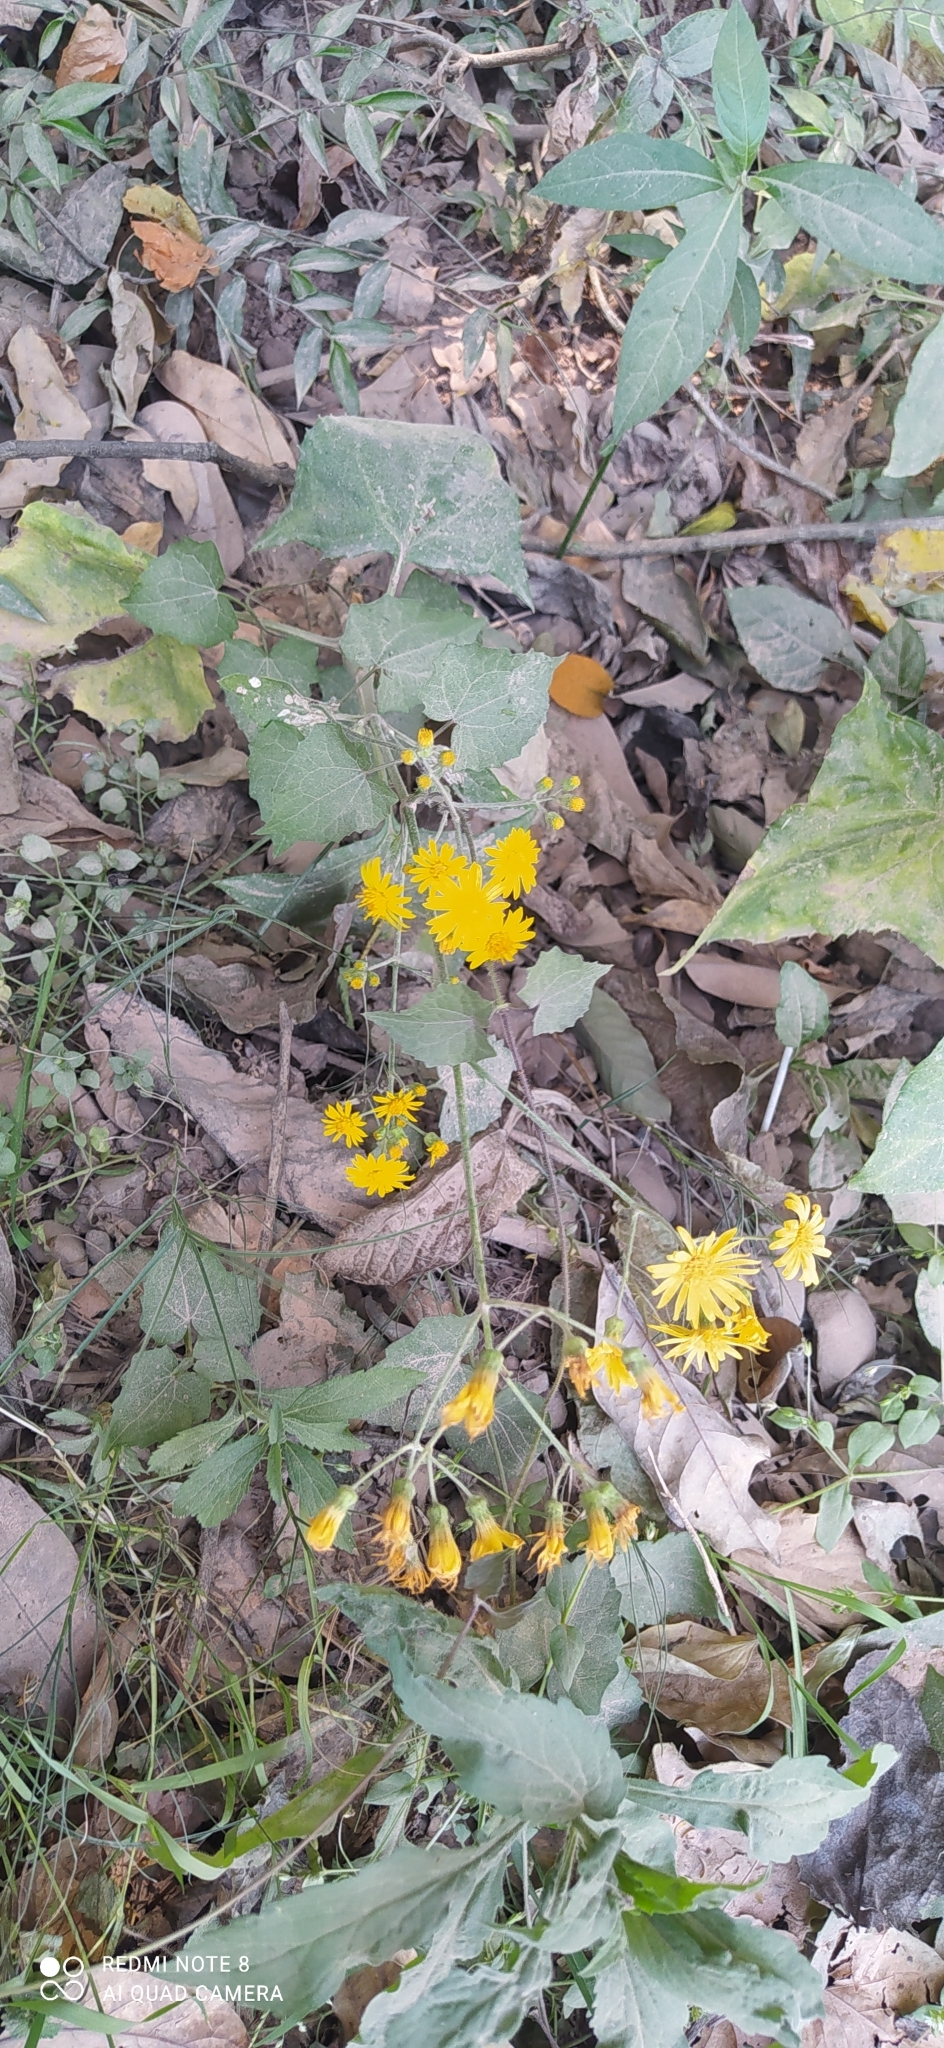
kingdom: Plantae
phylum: Tracheophyta
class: Magnoliopsida
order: Asterales
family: Asteraceae
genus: Munnozia
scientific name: Munnozia hastifolia
